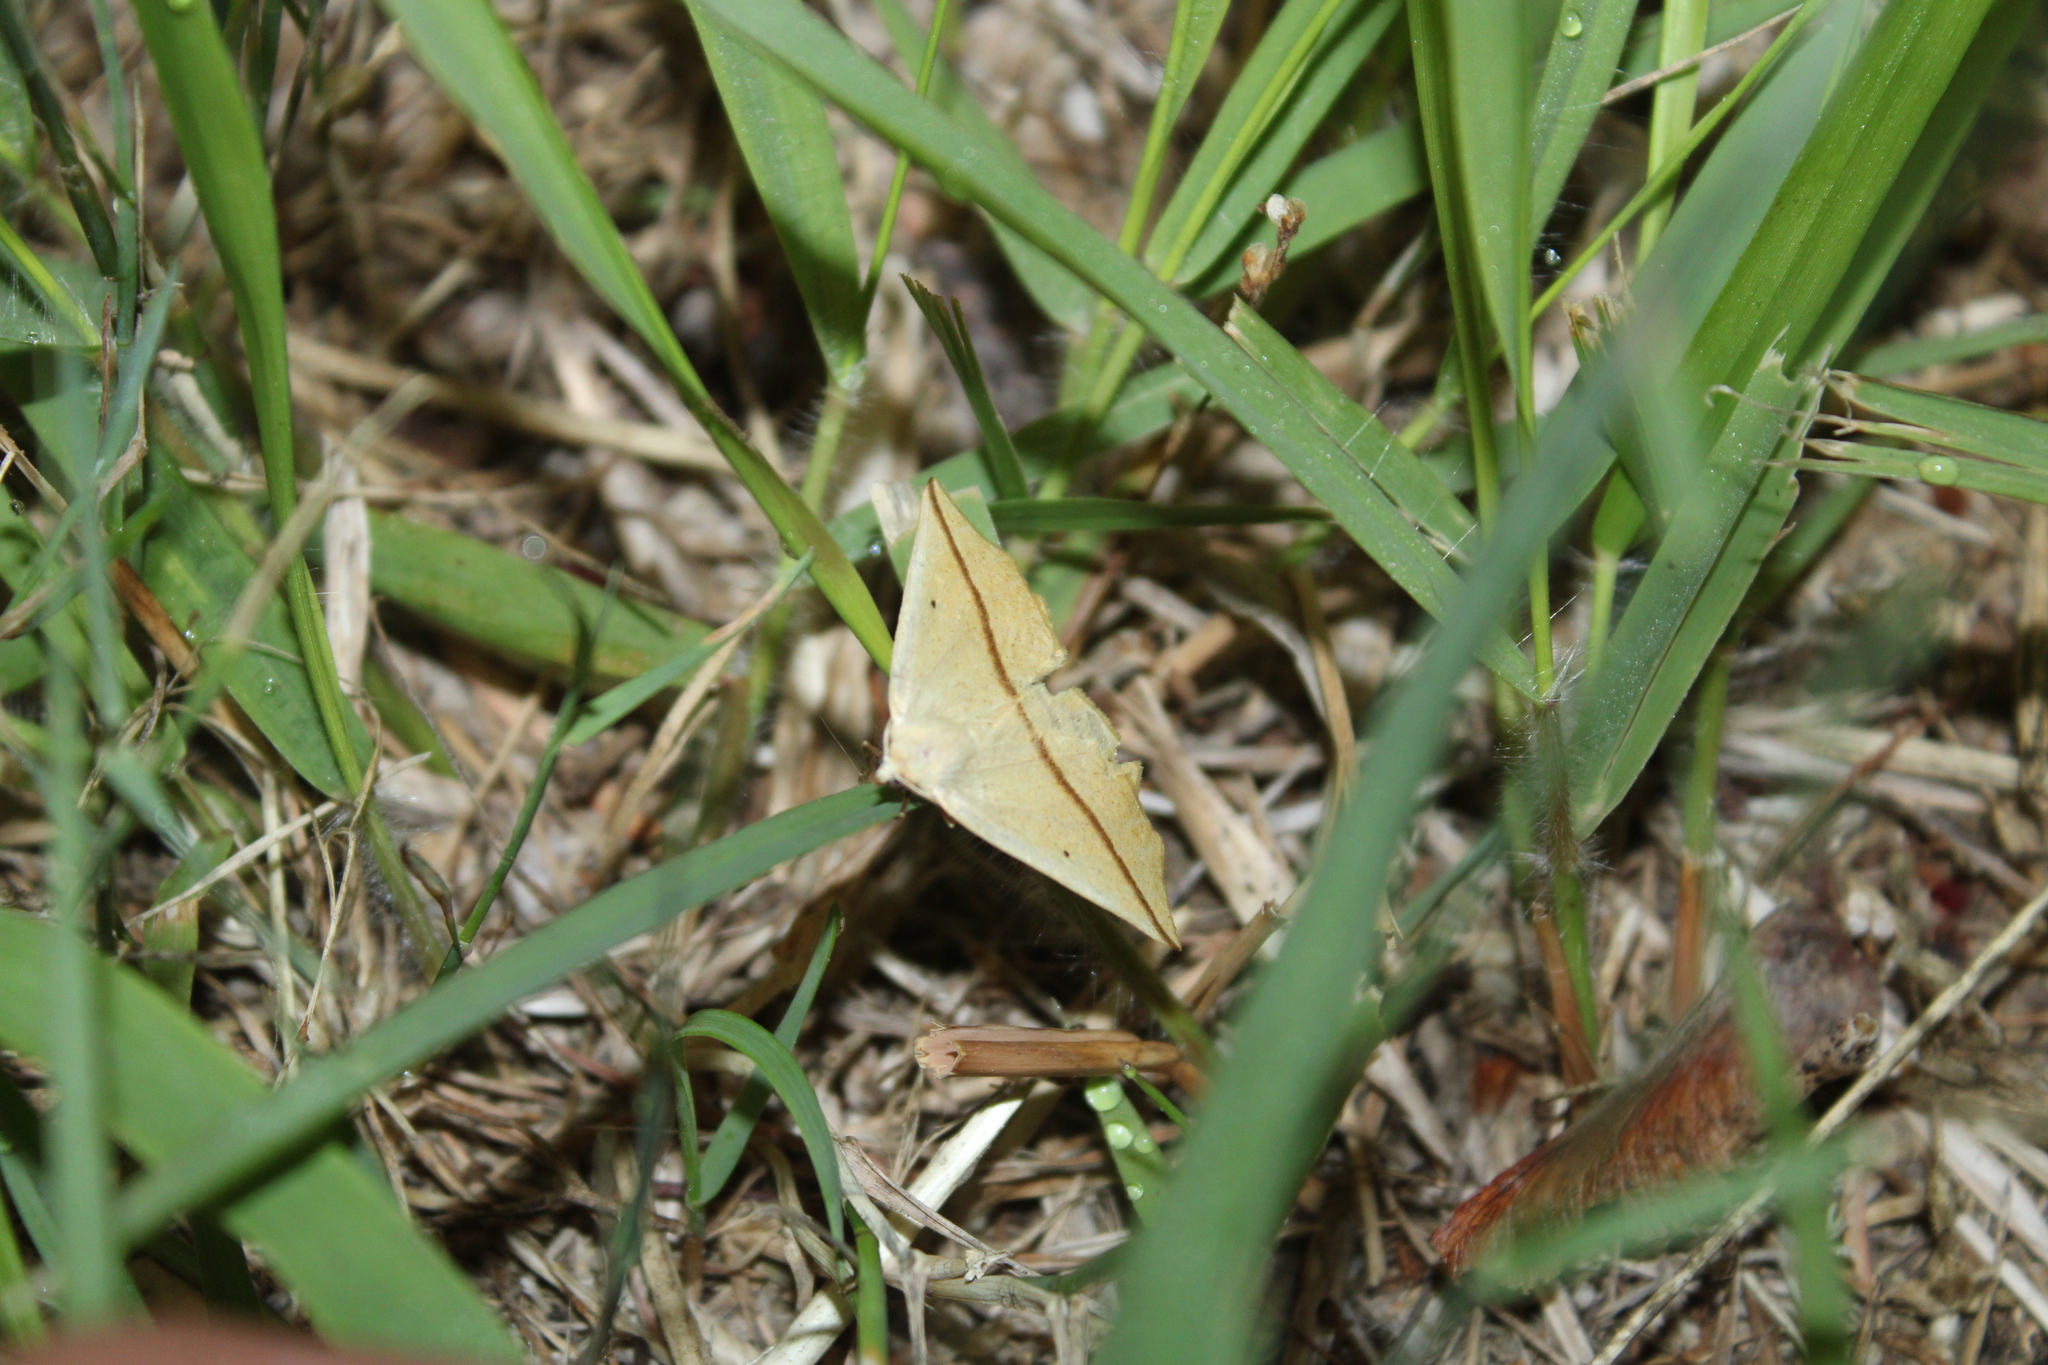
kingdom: Animalia
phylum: Arthropoda
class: Insecta
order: Lepidoptera
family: Geometridae
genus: Tetracis
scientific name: Tetracis crocallata
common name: Yellow slant-line
